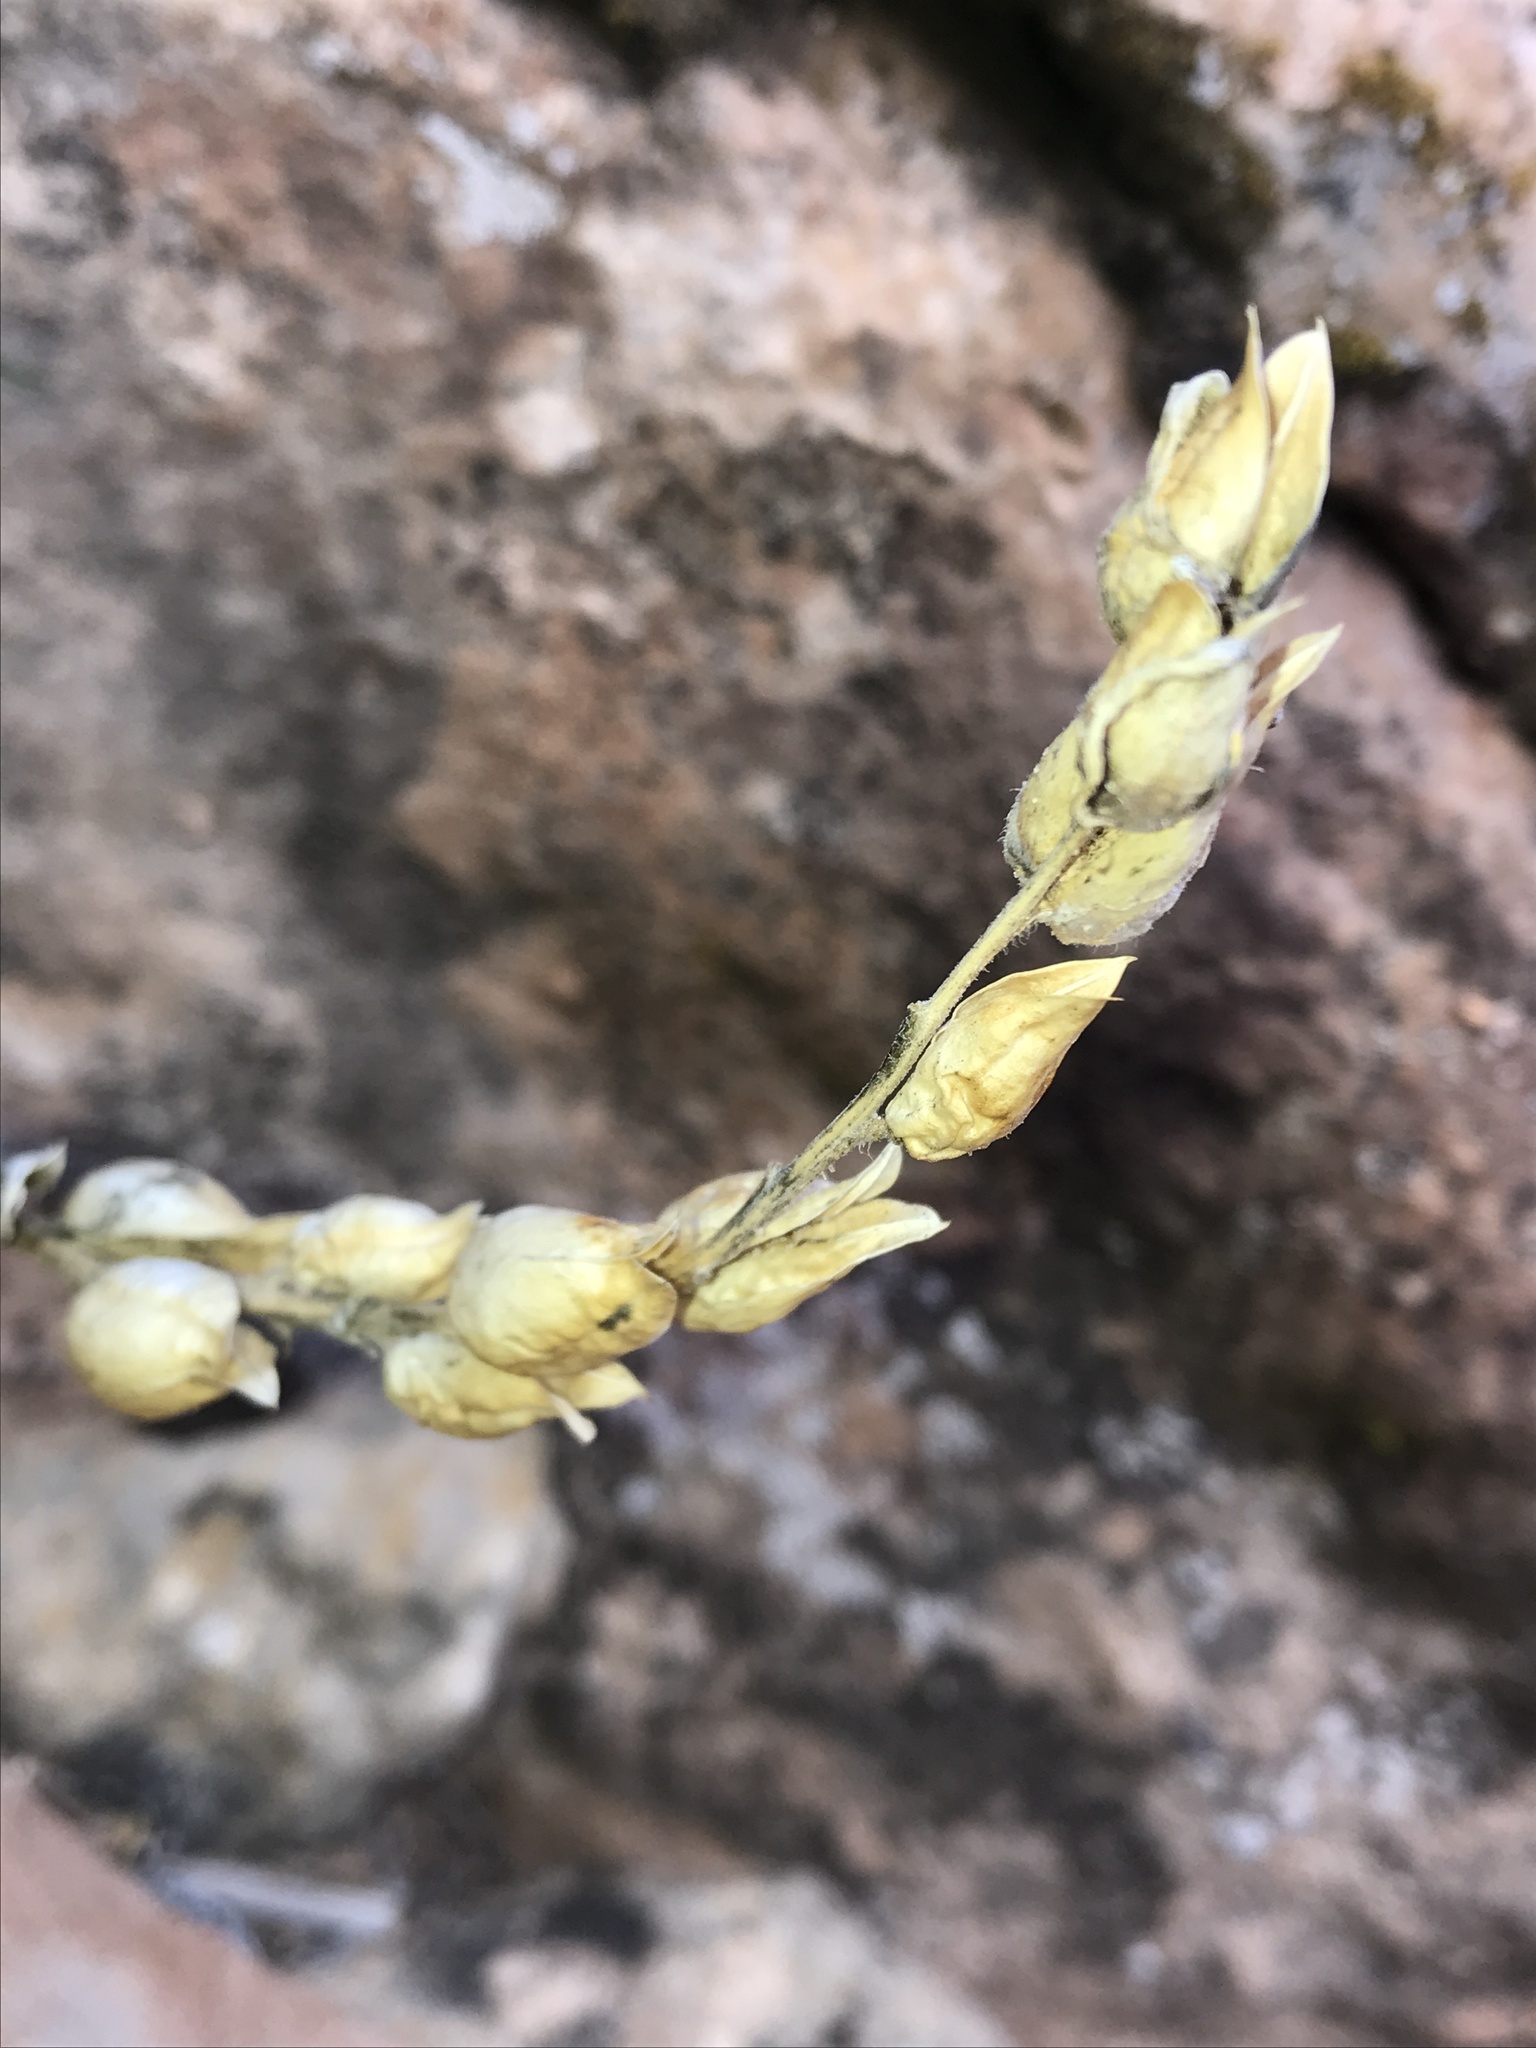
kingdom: Plantae
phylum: Tracheophyta
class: Magnoliopsida
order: Lamiales
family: Orobanchaceae
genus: Castilleja
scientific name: Castilleja chromosa
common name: Desert paintbrush
